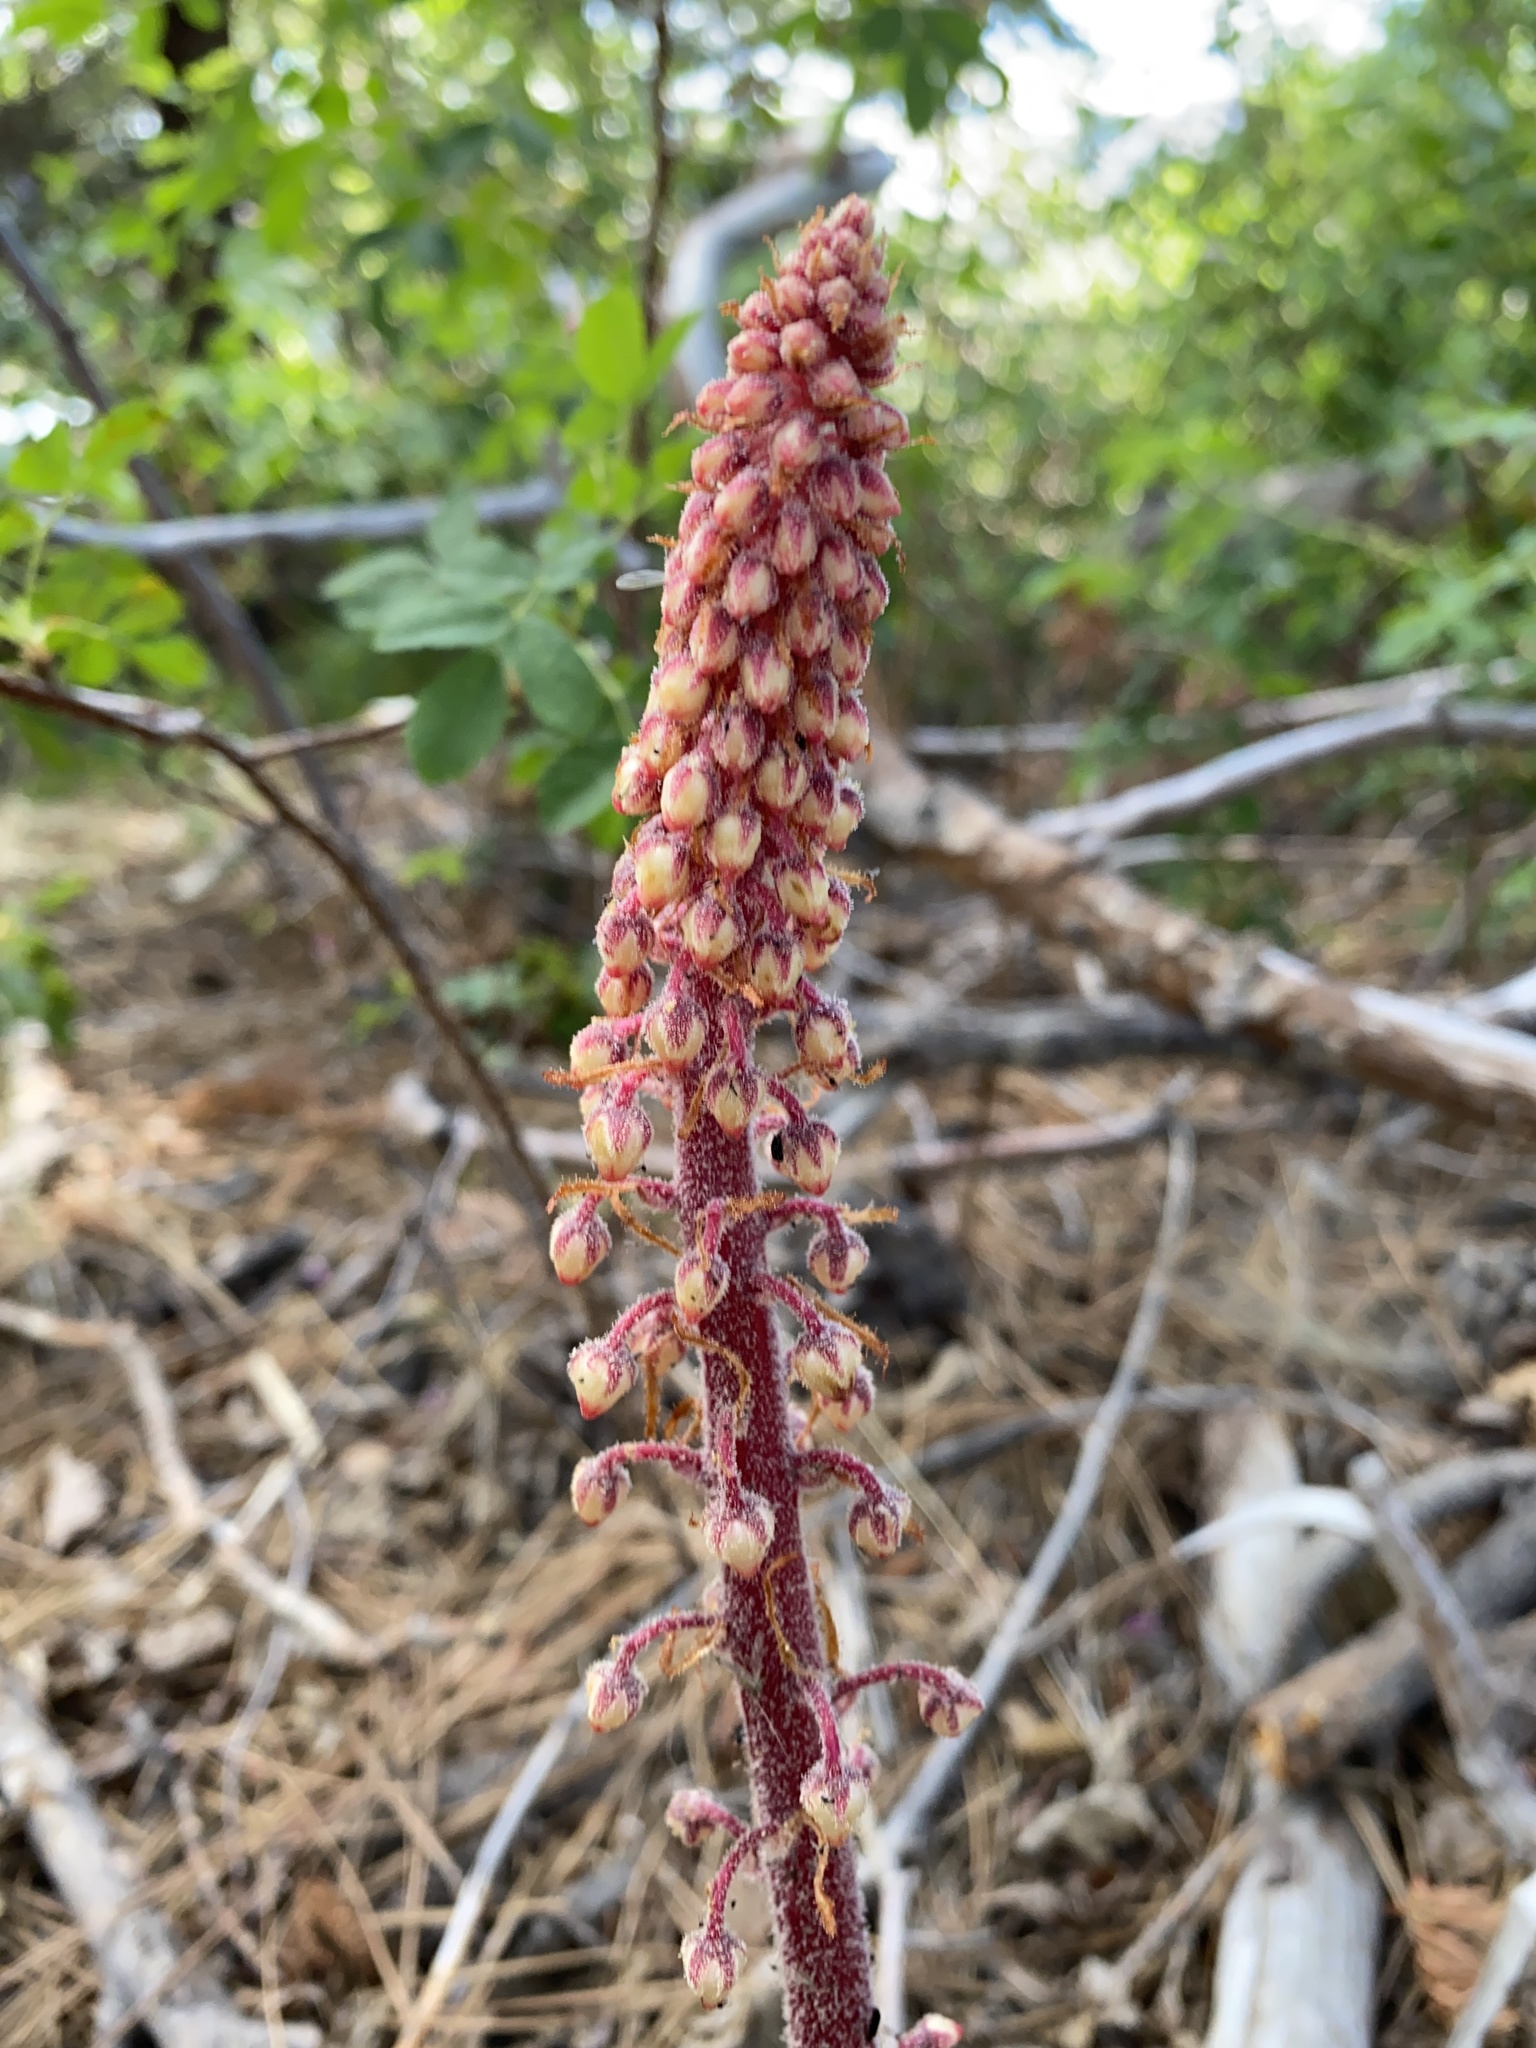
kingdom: Plantae
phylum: Tracheophyta
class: Magnoliopsida
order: Ericales
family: Ericaceae
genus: Pterospora
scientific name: Pterospora andromedea
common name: Giant bird's-nest
